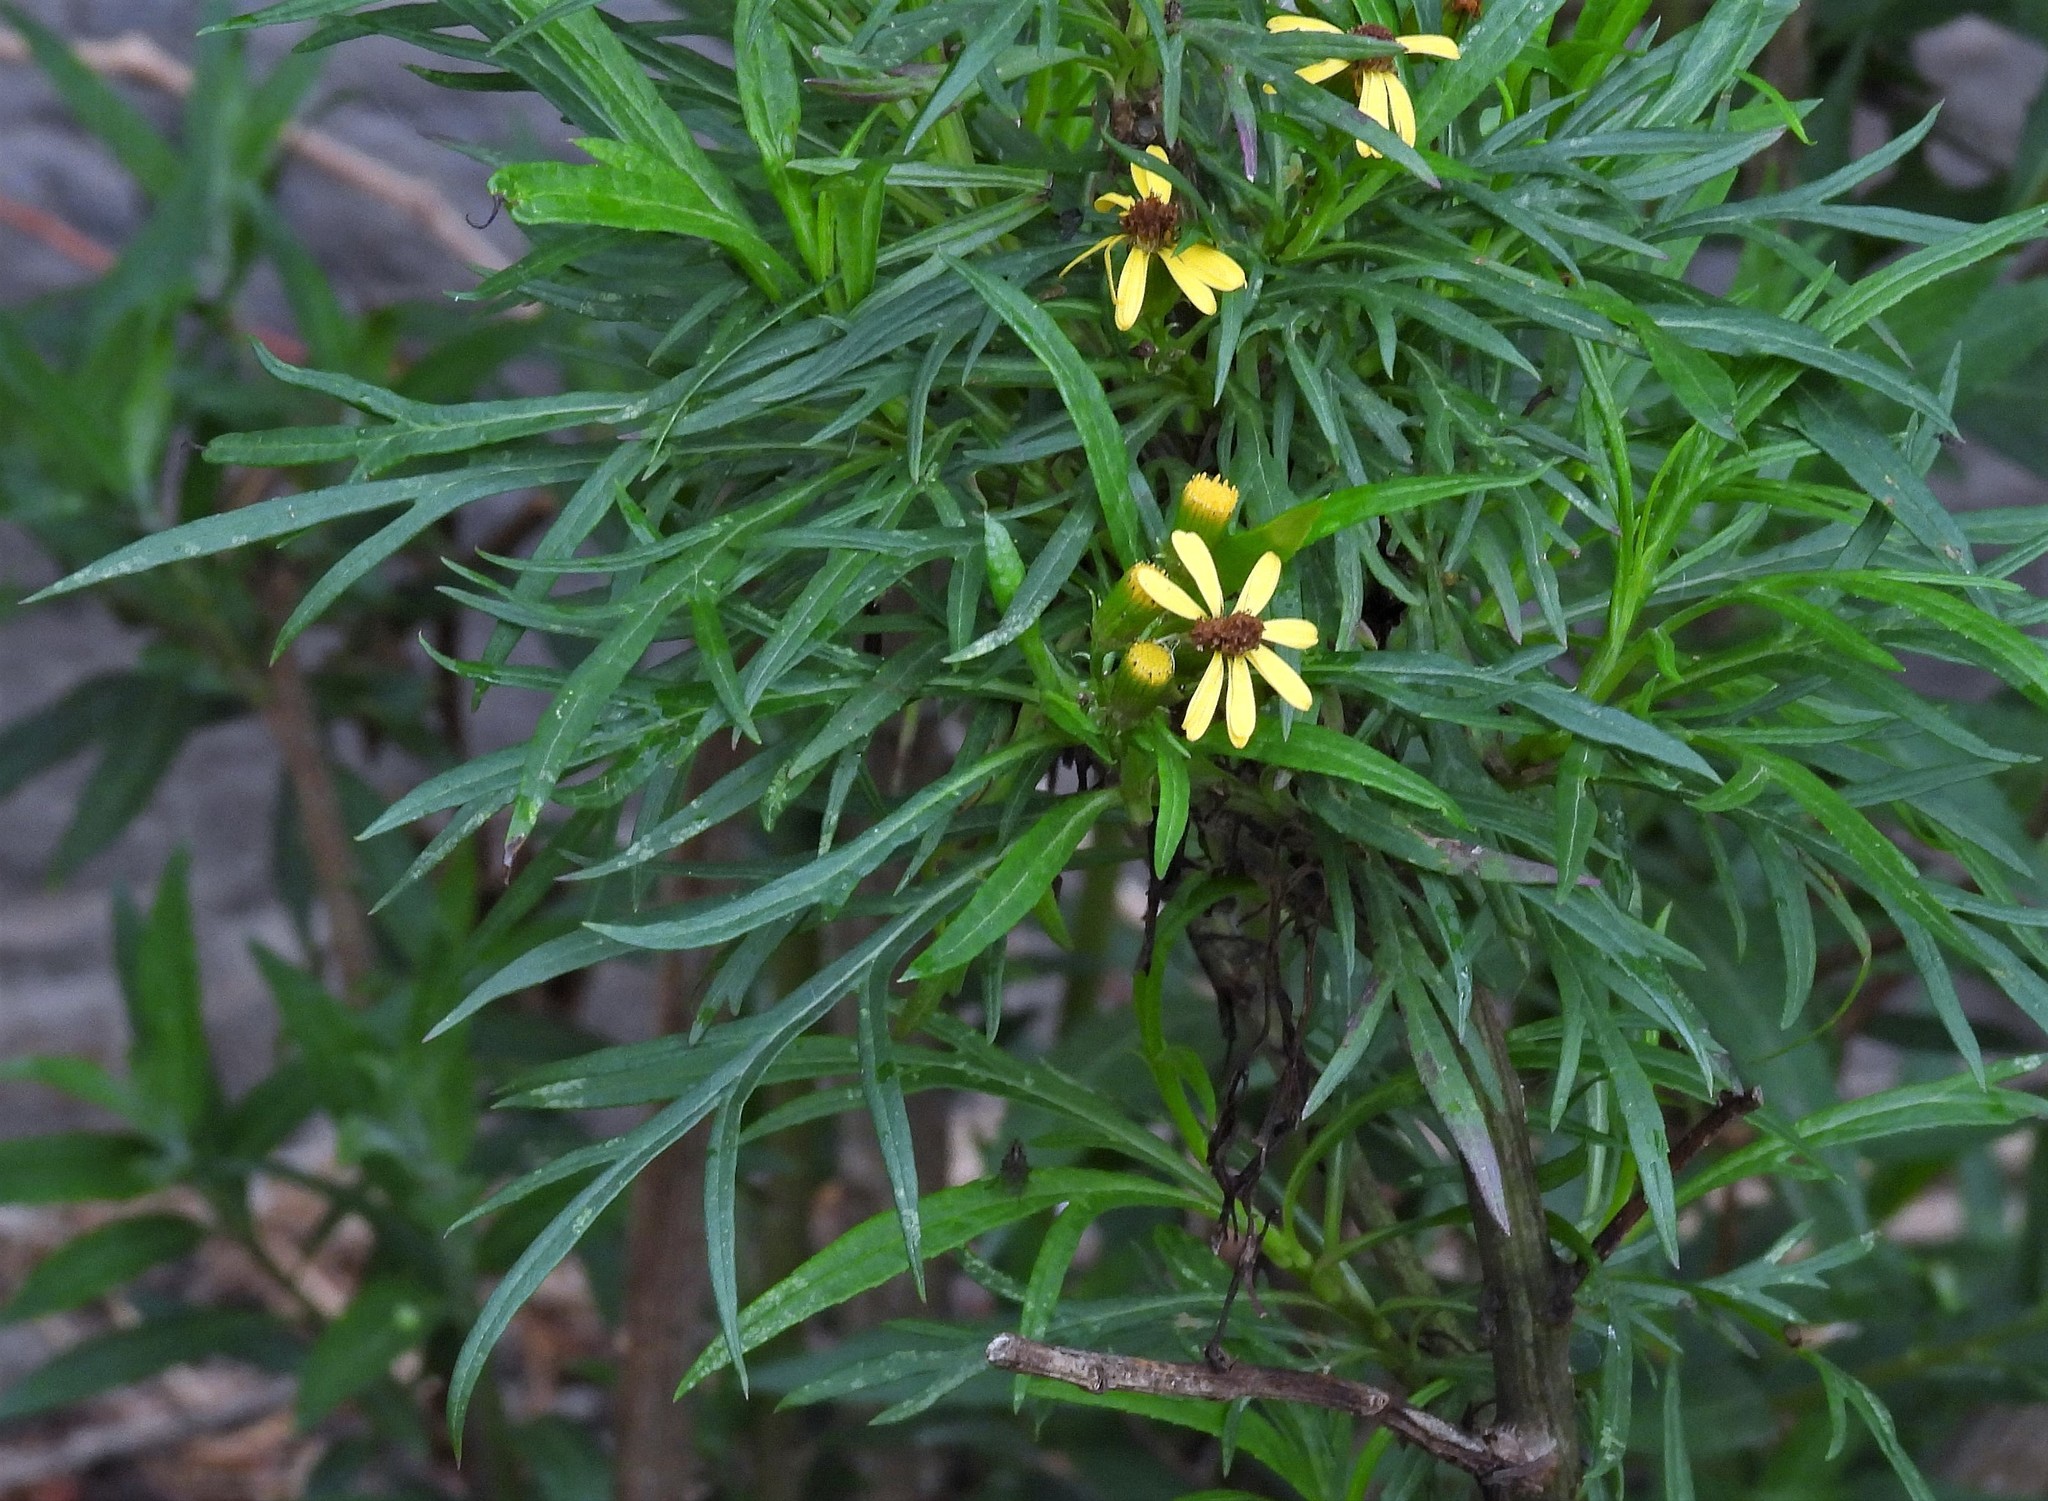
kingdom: Plantae
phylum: Tracheophyta
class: Magnoliopsida
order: Asterales
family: Asteraceae
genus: Senecio
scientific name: Senecio rudbeckiifolius
